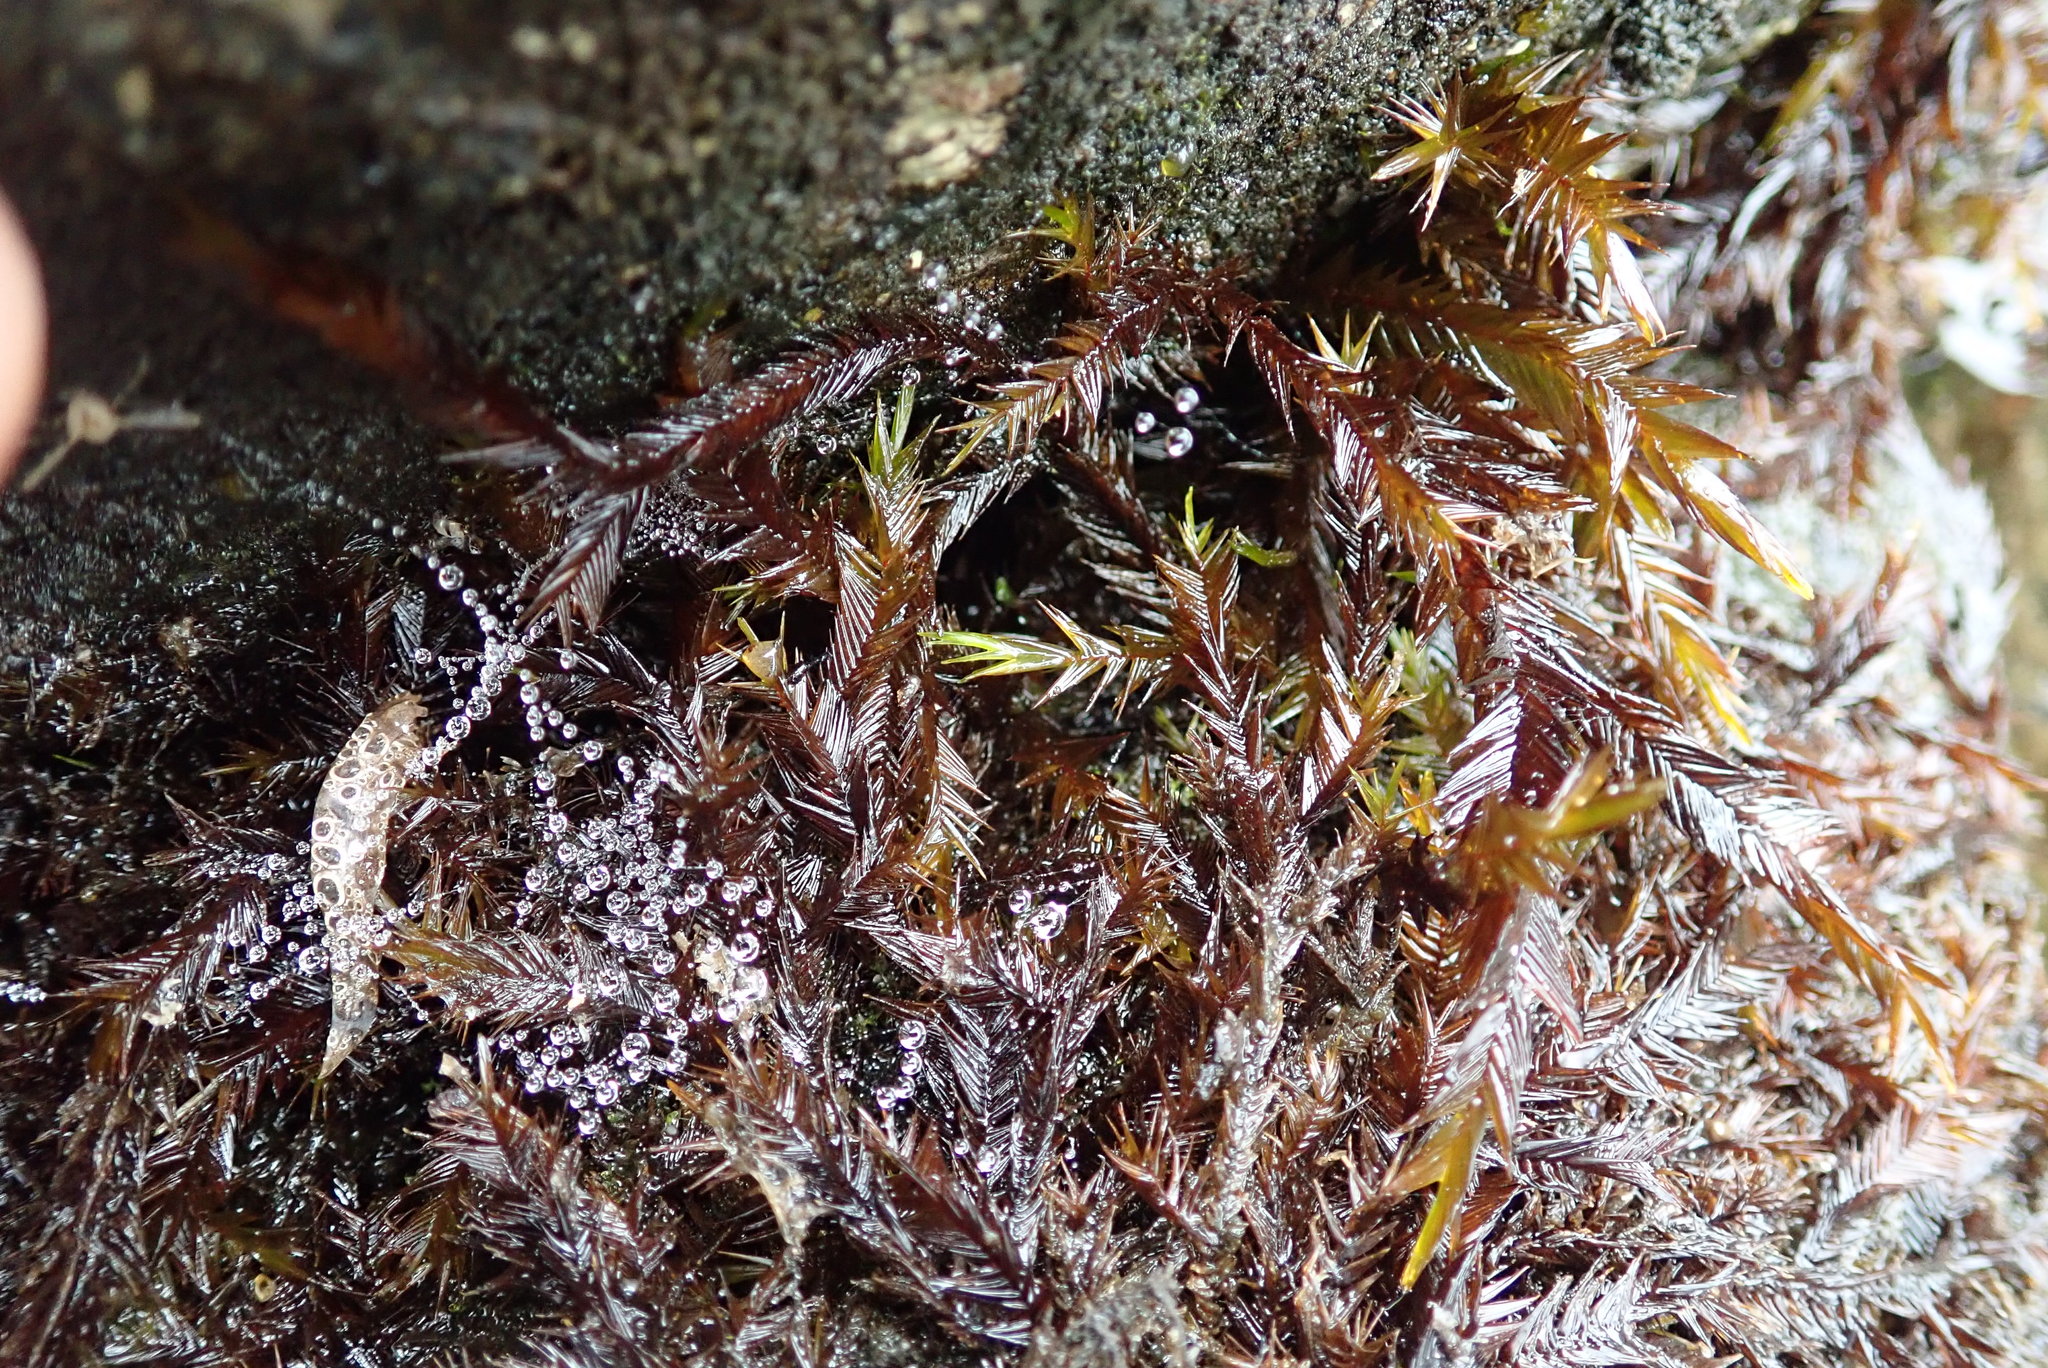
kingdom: Plantae
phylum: Bryophyta
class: Bryopsida
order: Hypnales
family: Fontinalaceae
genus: Fontinalis
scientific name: Fontinalis antipyretica
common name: Greater water-moss
